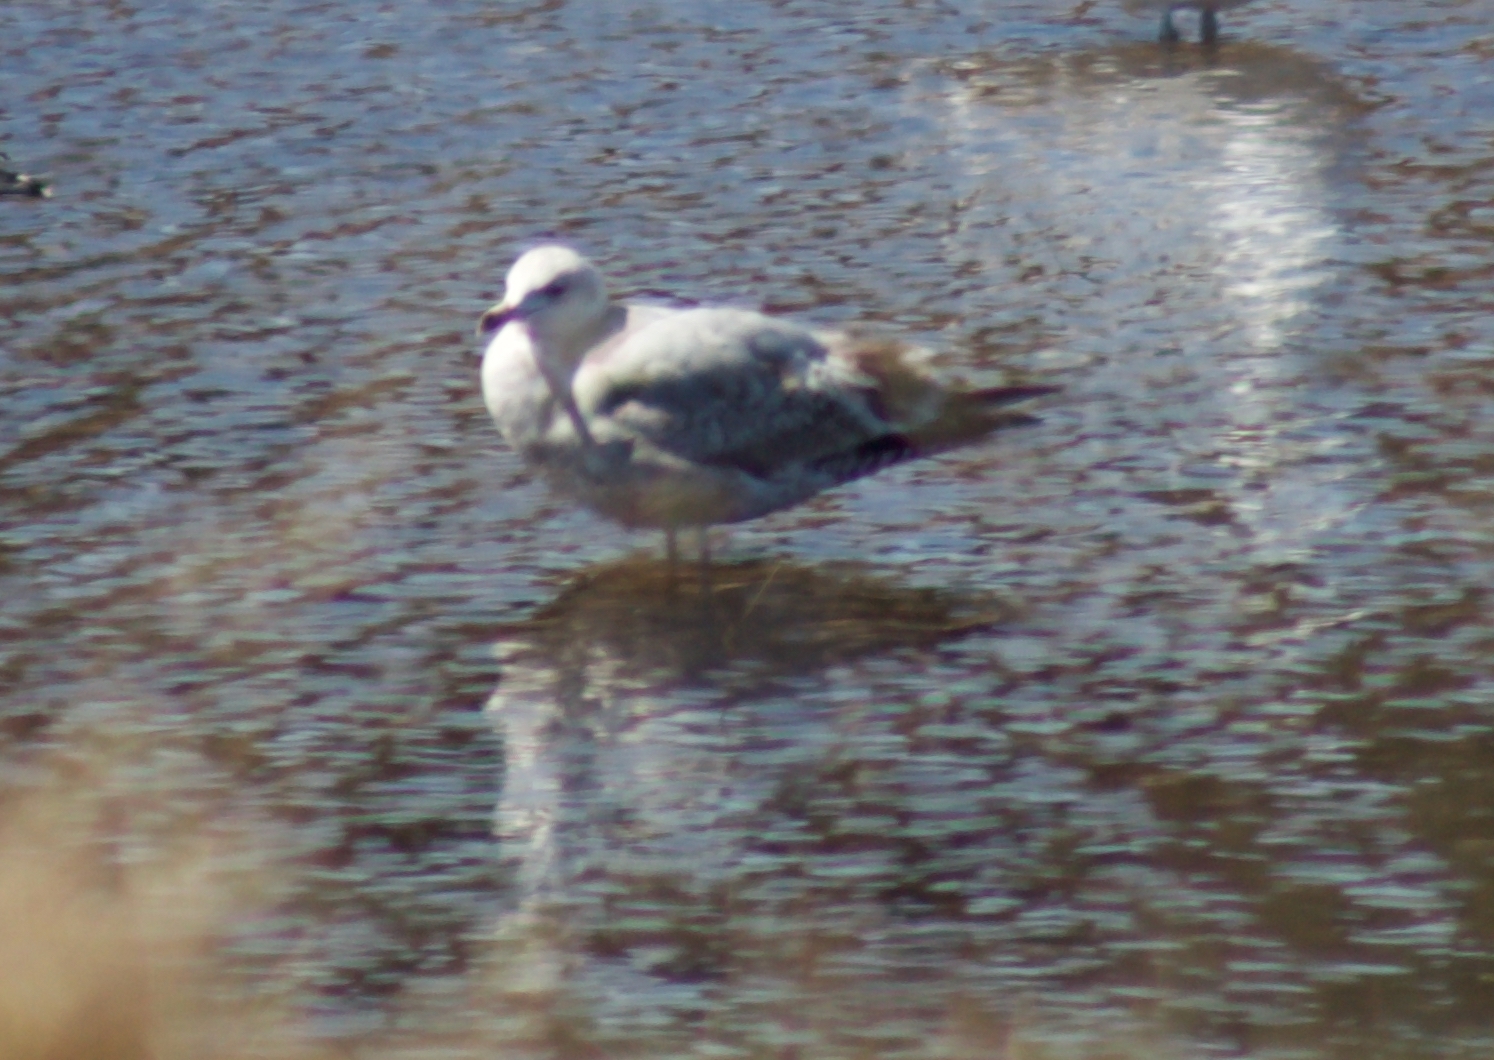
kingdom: Animalia
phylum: Chordata
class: Aves
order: Charadriiformes
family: Laridae
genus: Larus
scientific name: Larus argentatus
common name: Herring gull
